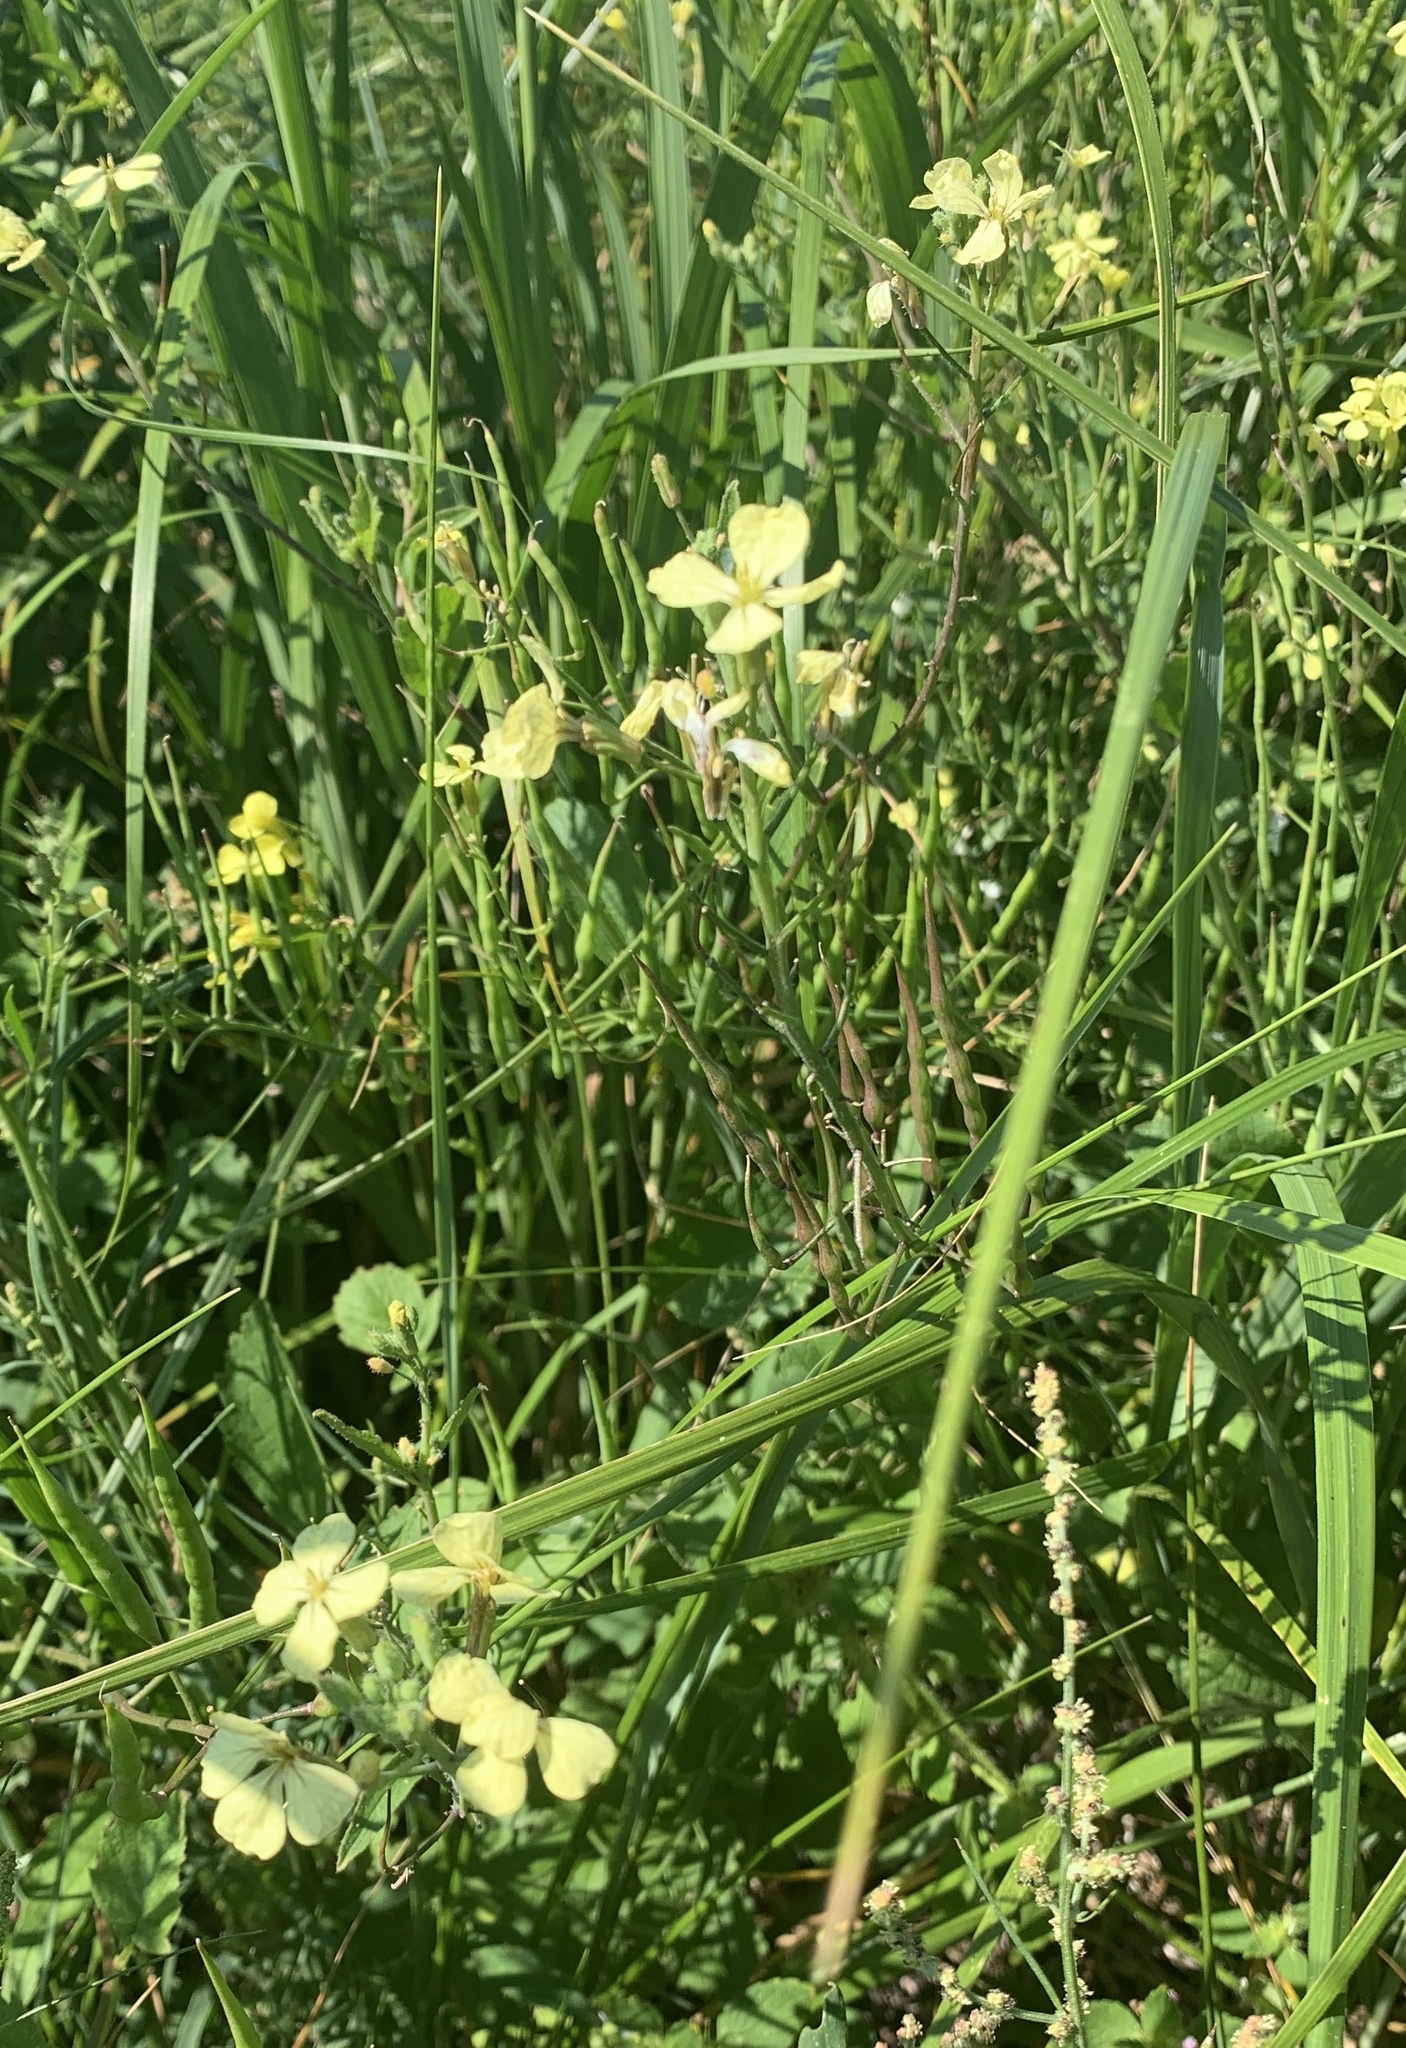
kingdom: Plantae
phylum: Tracheophyta
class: Magnoliopsida
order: Brassicales
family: Brassicaceae
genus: Raphanus
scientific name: Raphanus raphanistrum
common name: Wild radish
